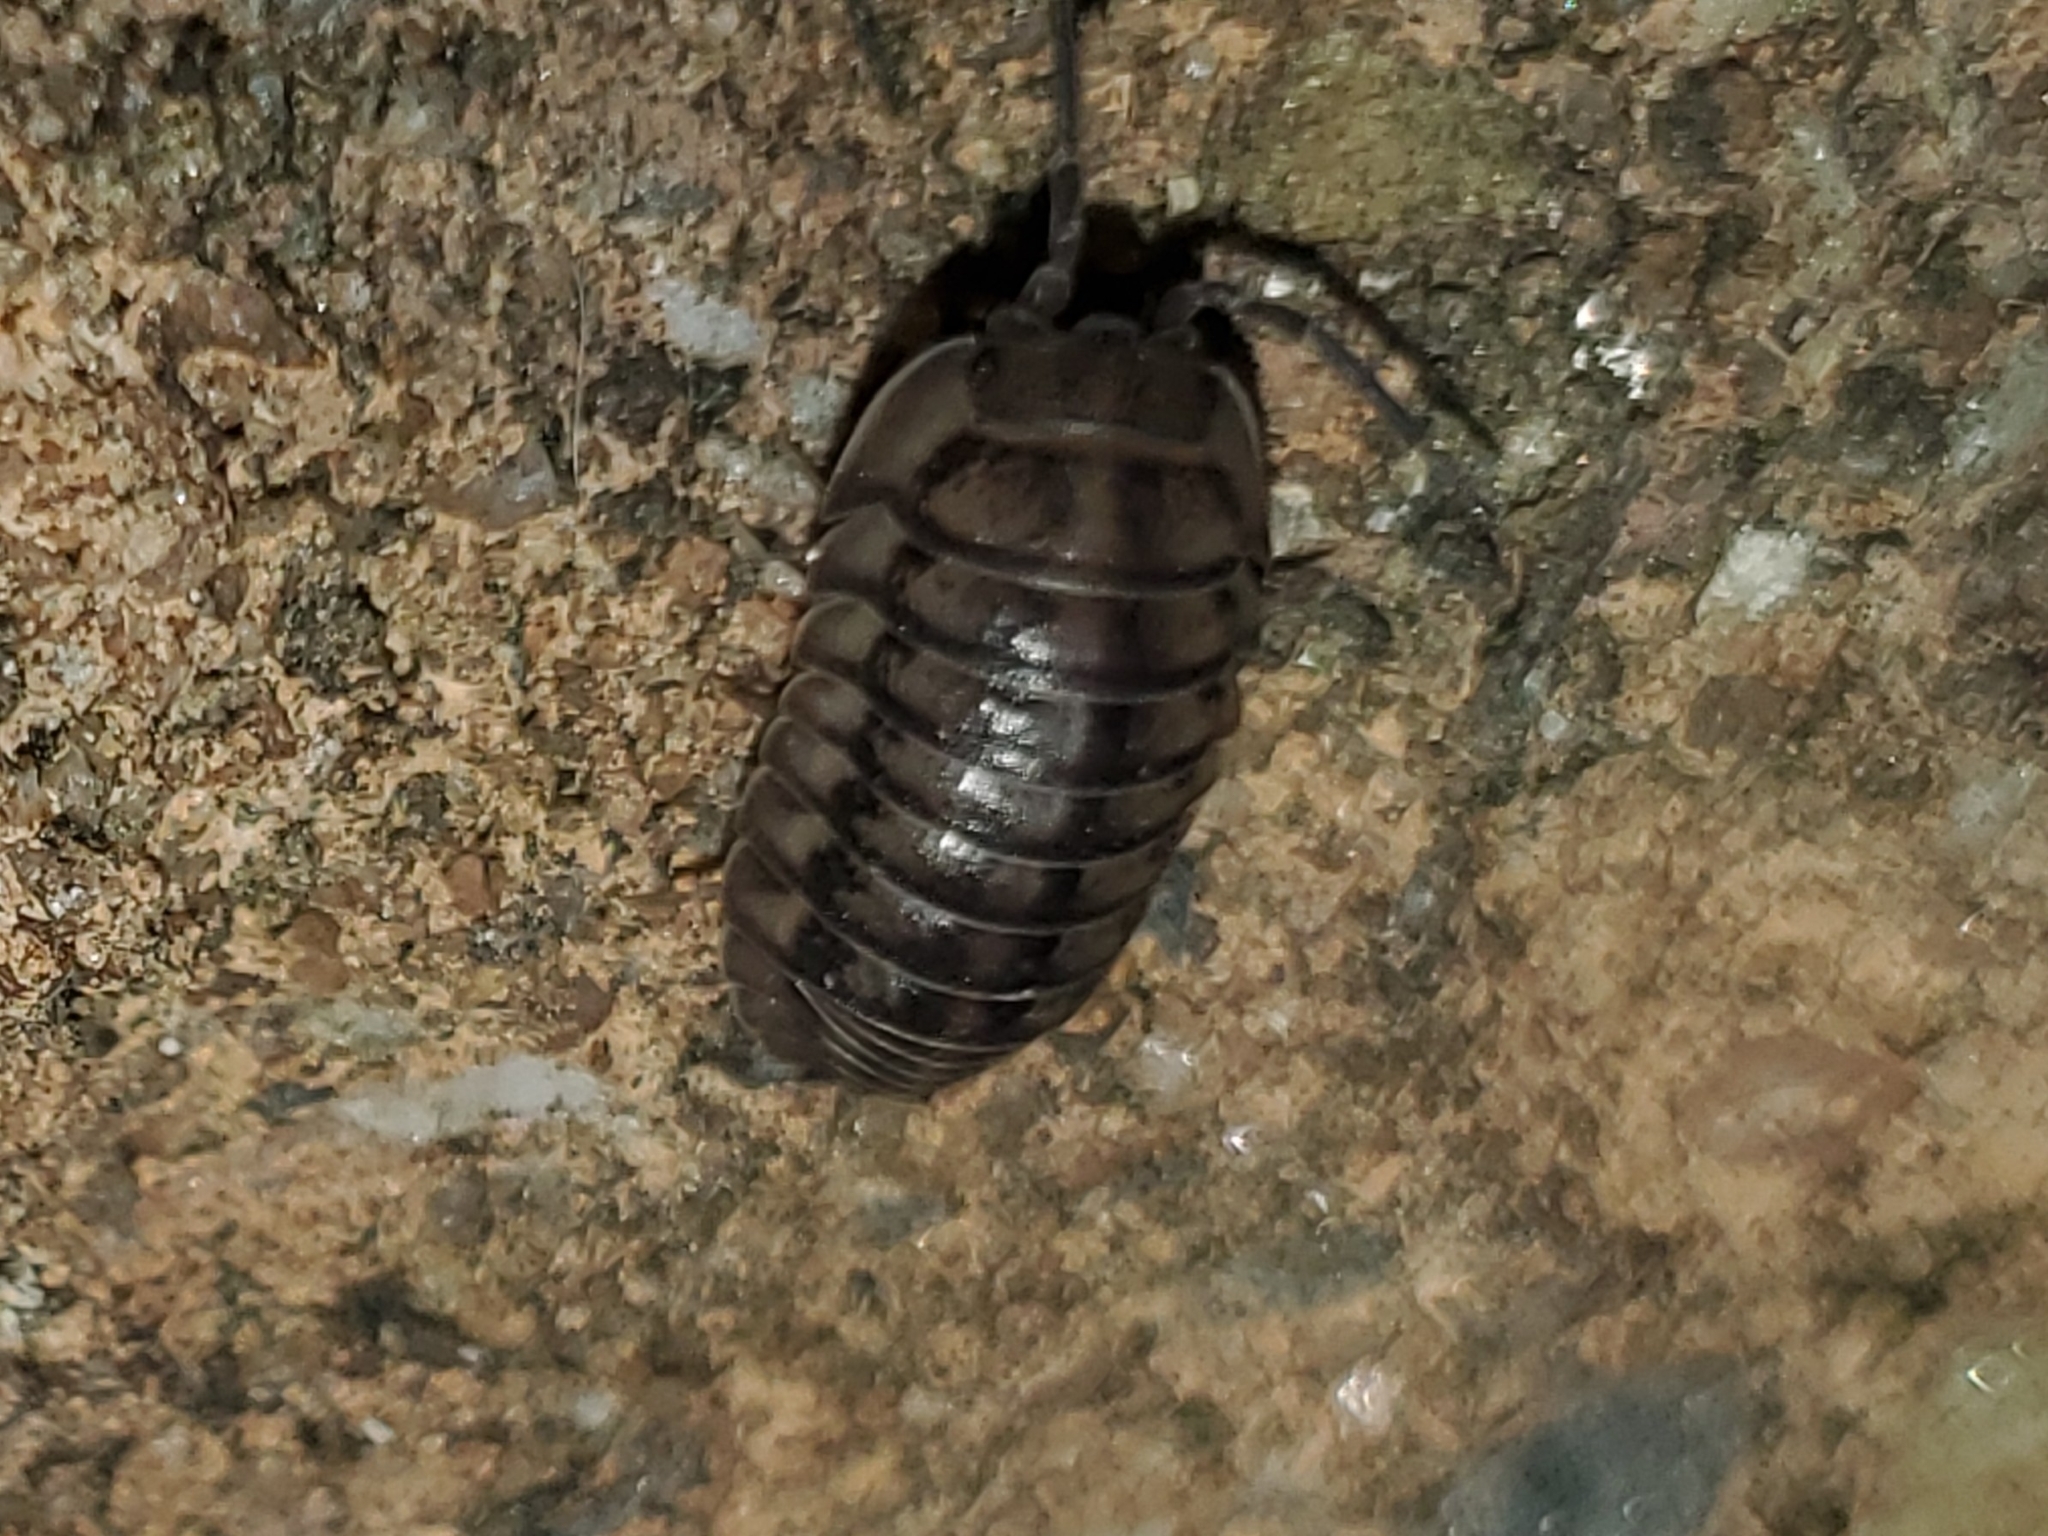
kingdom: Animalia
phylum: Arthropoda
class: Malacostraca
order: Isopoda
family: Armadillidiidae
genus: Armadillidium
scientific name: Armadillidium nasatum
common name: Isopod
